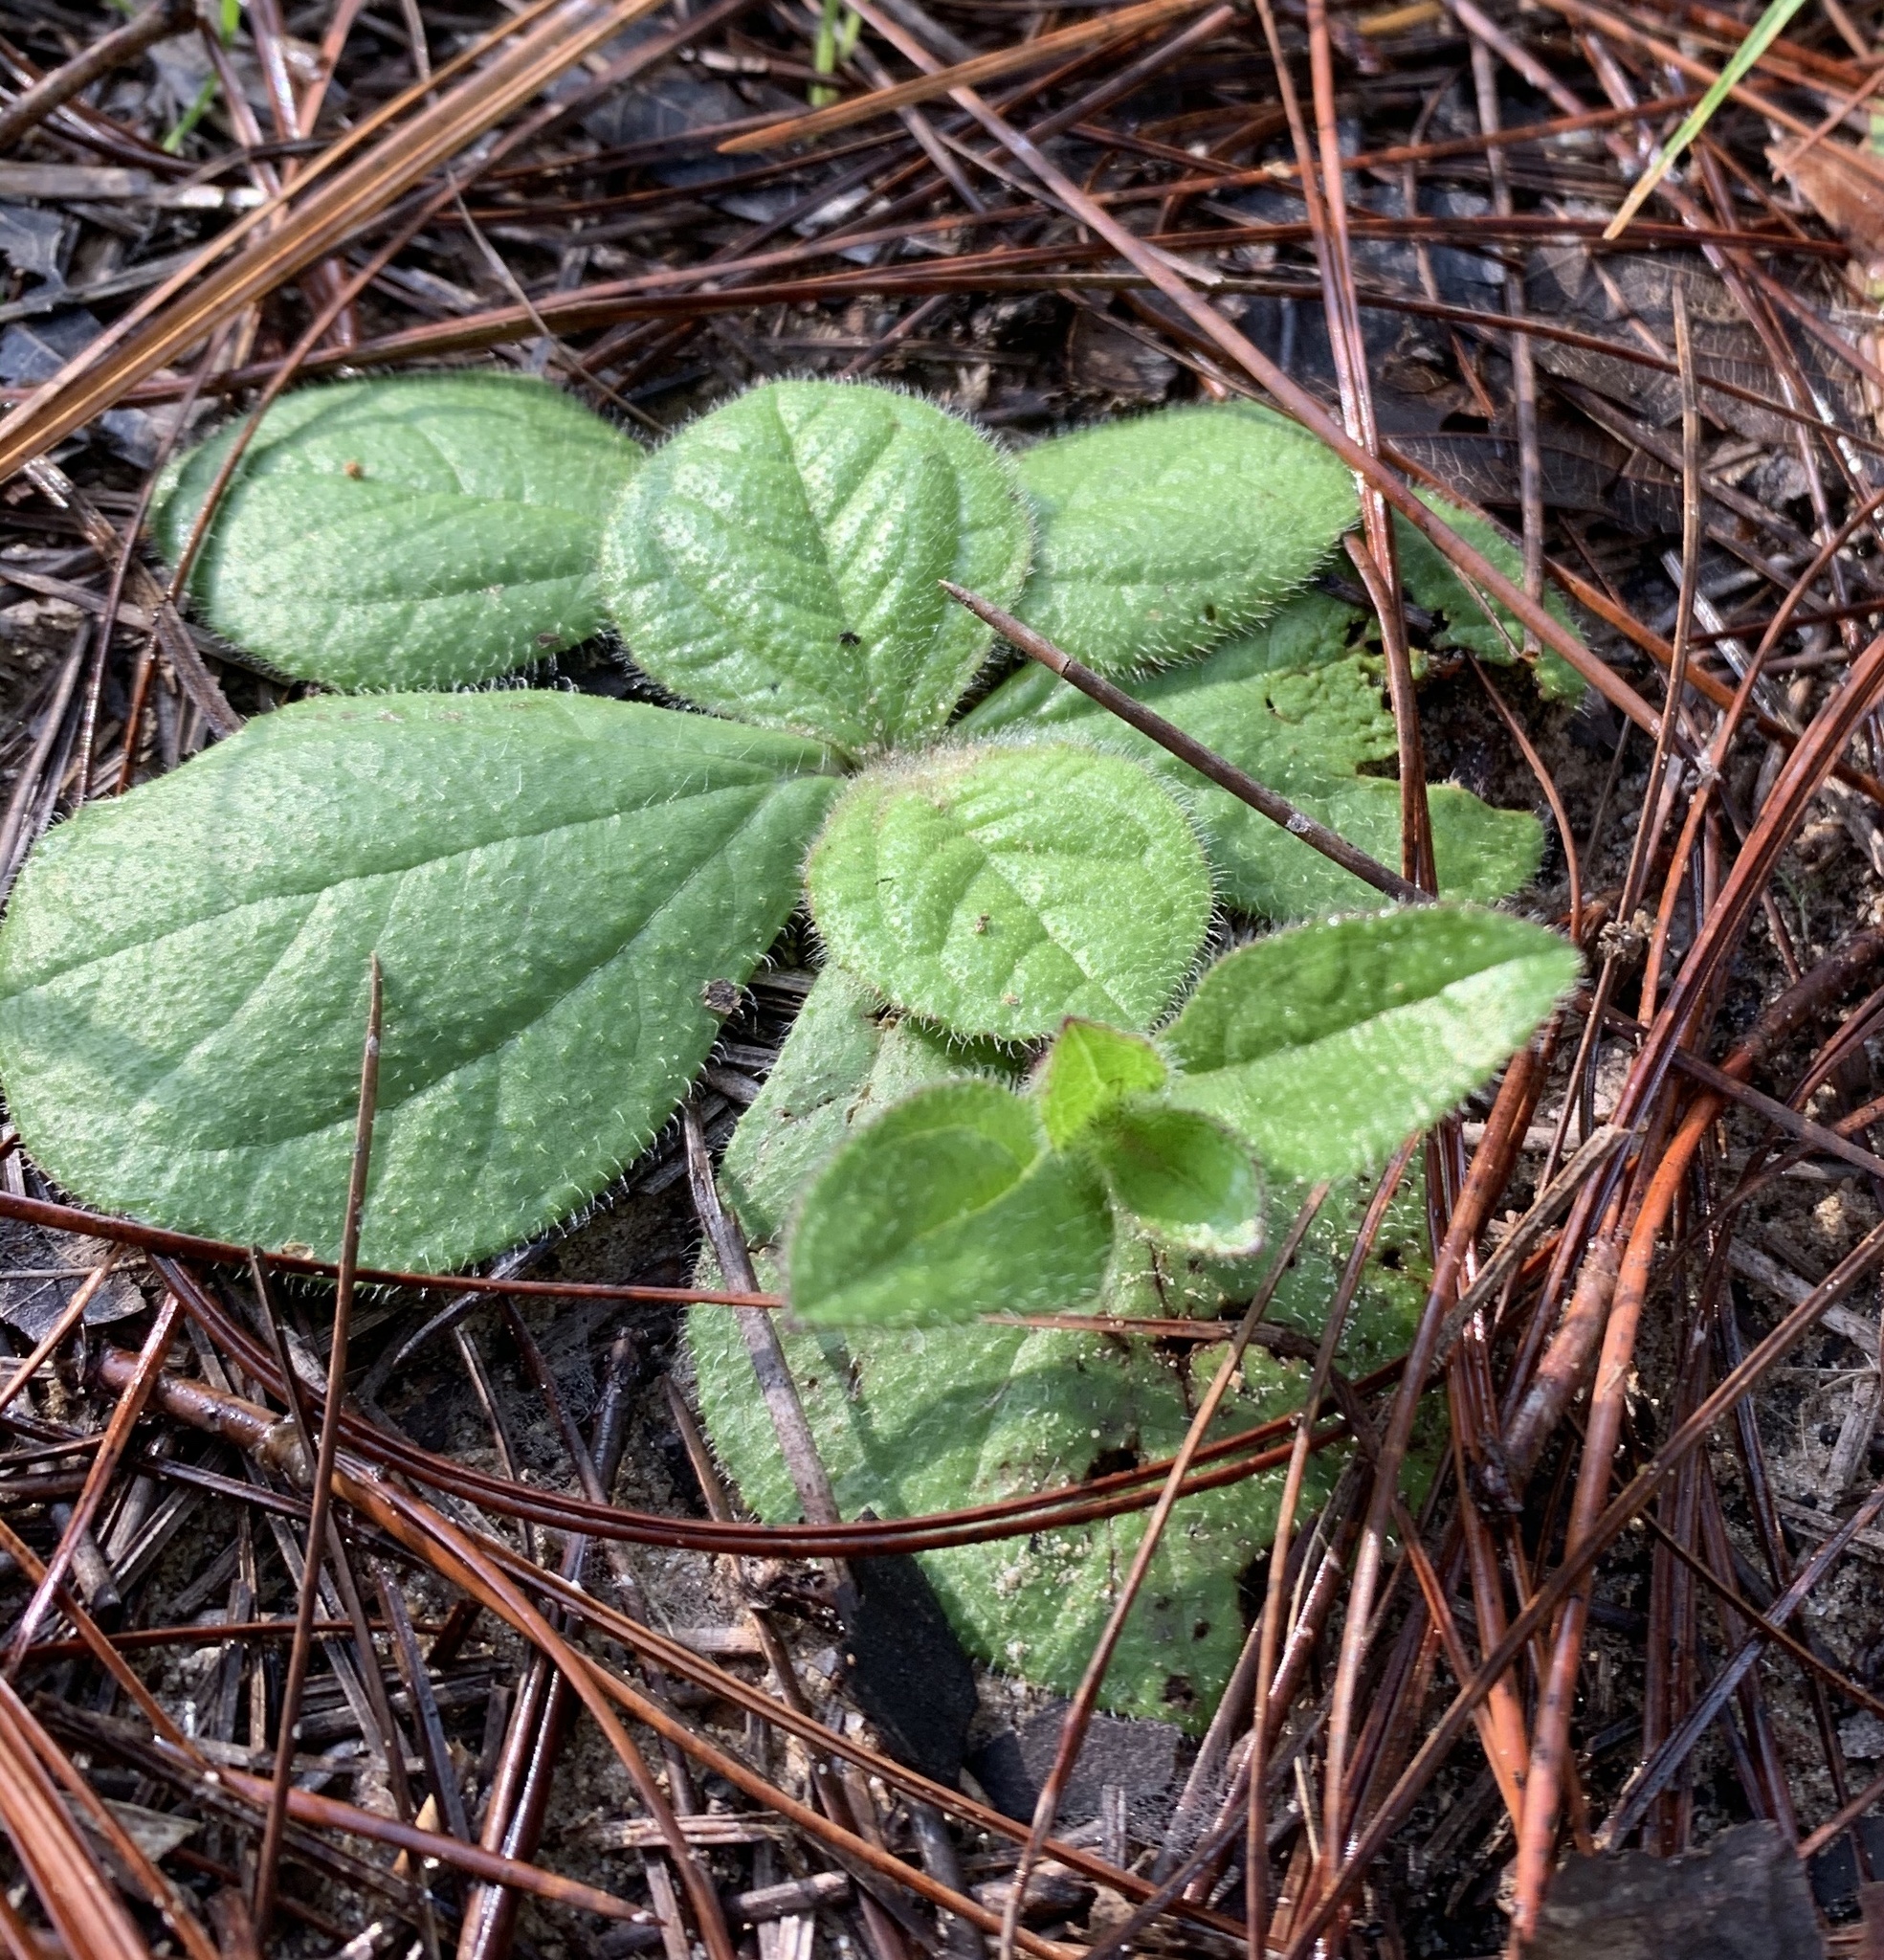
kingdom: Plantae
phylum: Tracheophyta
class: Magnoliopsida
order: Asterales
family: Asteraceae
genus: Helianthus
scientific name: Helianthus radula
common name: Pineland sunflower
